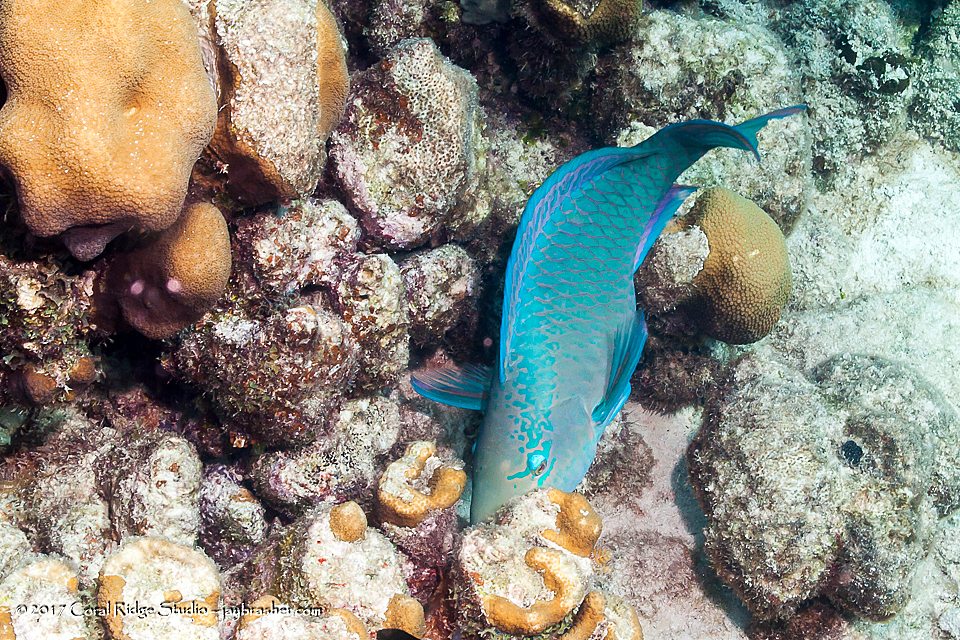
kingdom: Animalia
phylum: Chordata
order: Perciformes
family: Scaridae
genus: Scarus
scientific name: Scarus vetula
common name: Queen parrotfish
